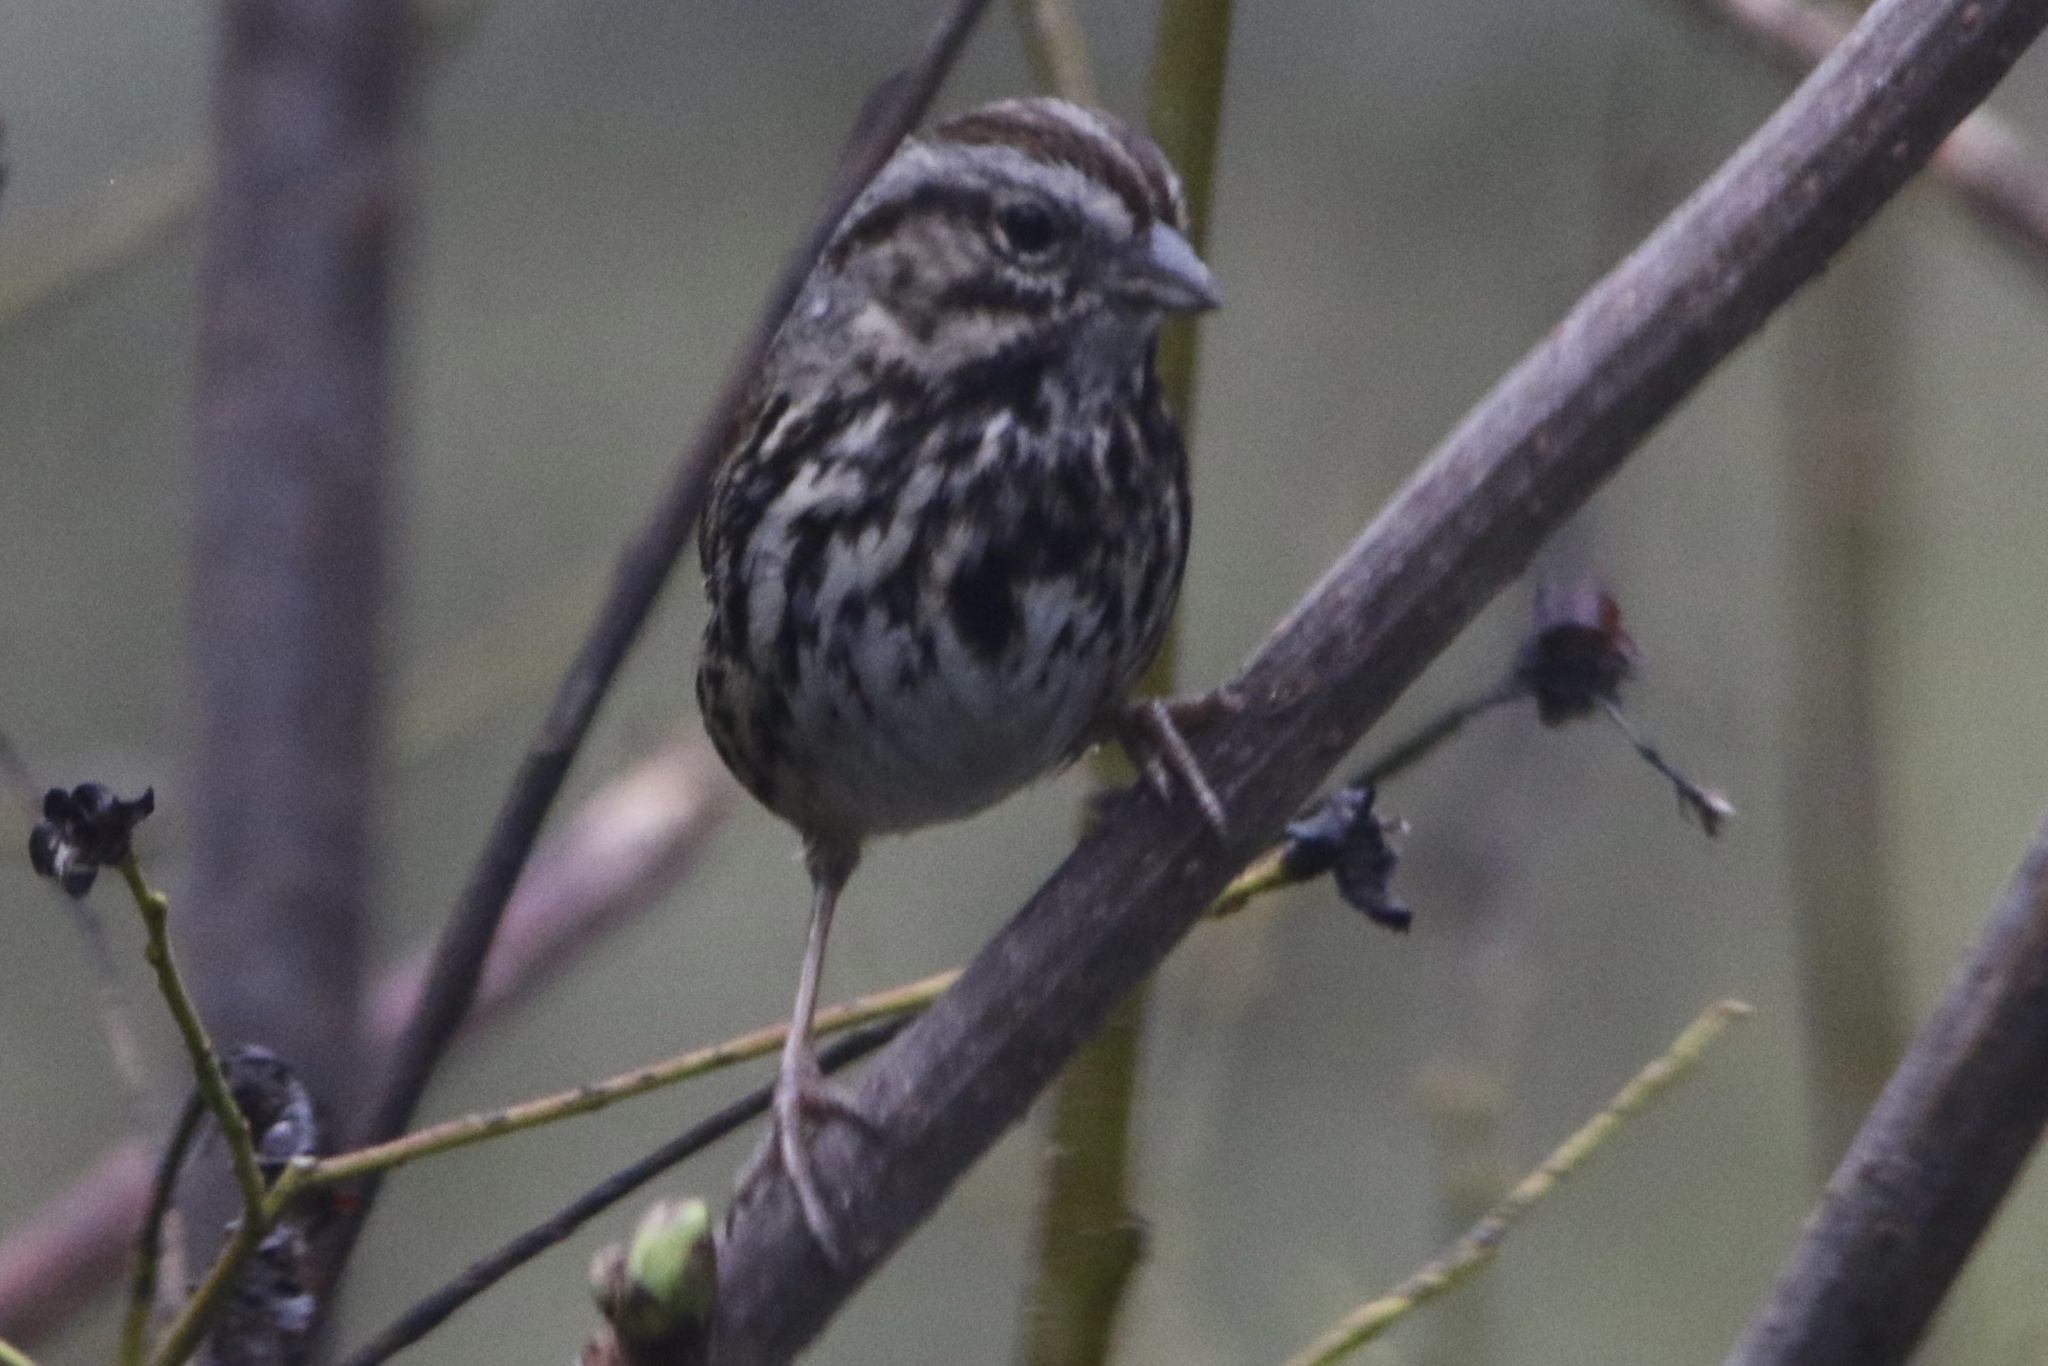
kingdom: Animalia
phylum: Chordata
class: Aves
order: Passeriformes
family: Passerellidae
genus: Melospiza
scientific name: Melospiza melodia
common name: Song sparrow
